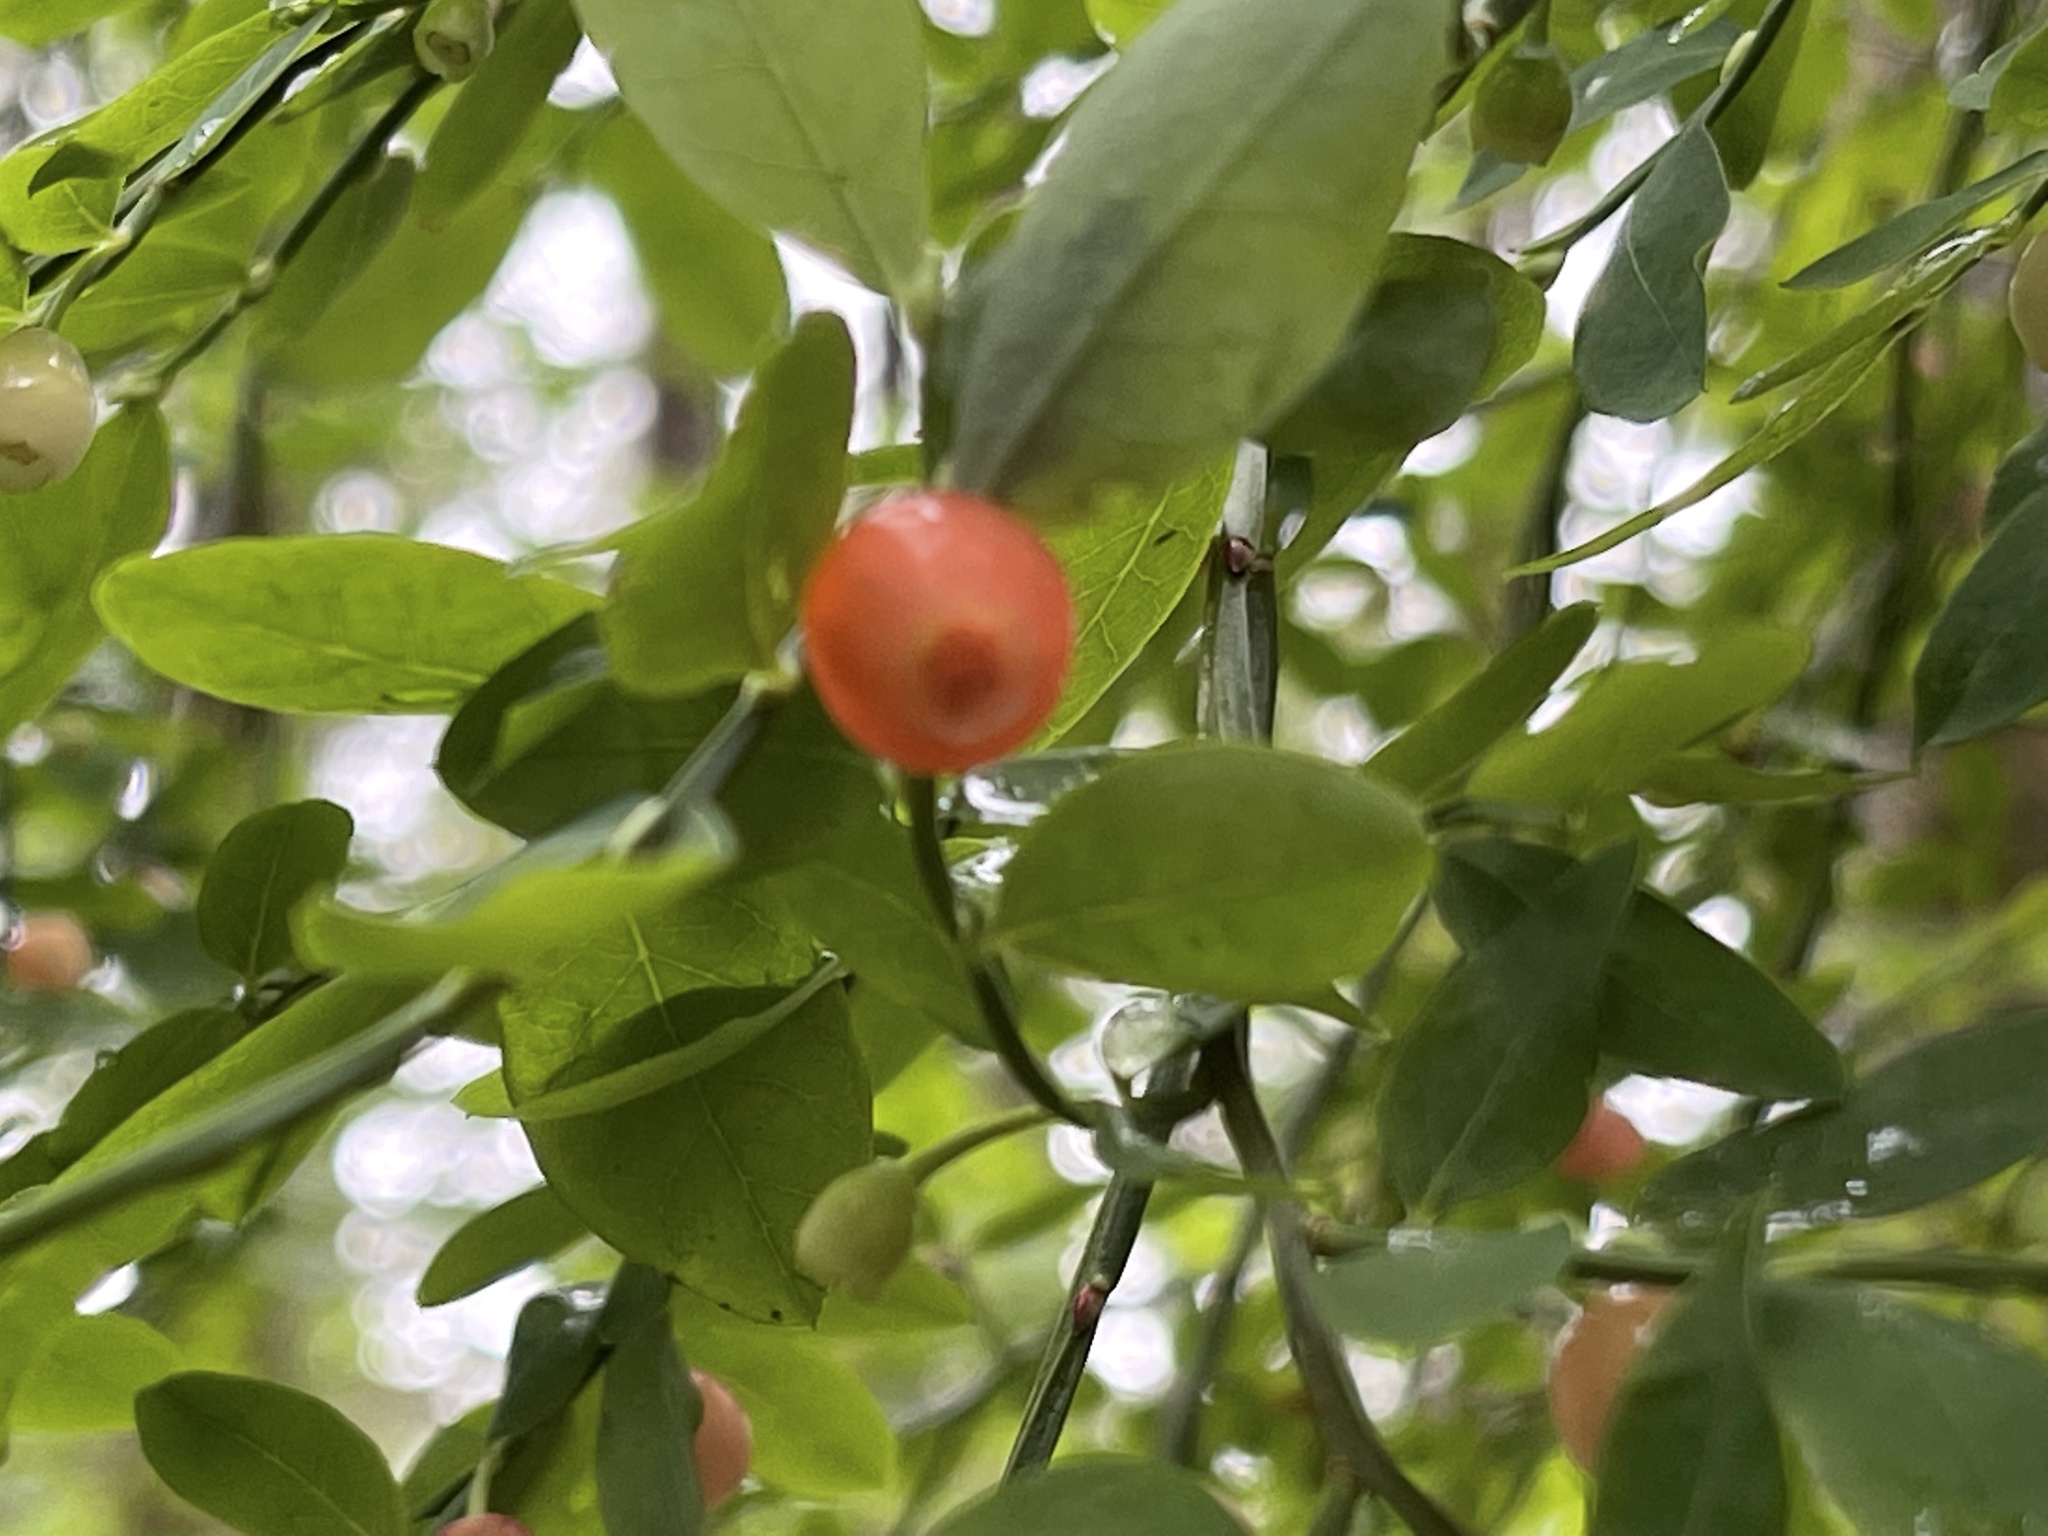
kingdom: Plantae
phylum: Tracheophyta
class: Magnoliopsida
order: Ericales
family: Ericaceae
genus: Vaccinium
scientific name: Vaccinium parvifolium
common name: Red-huckleberry
